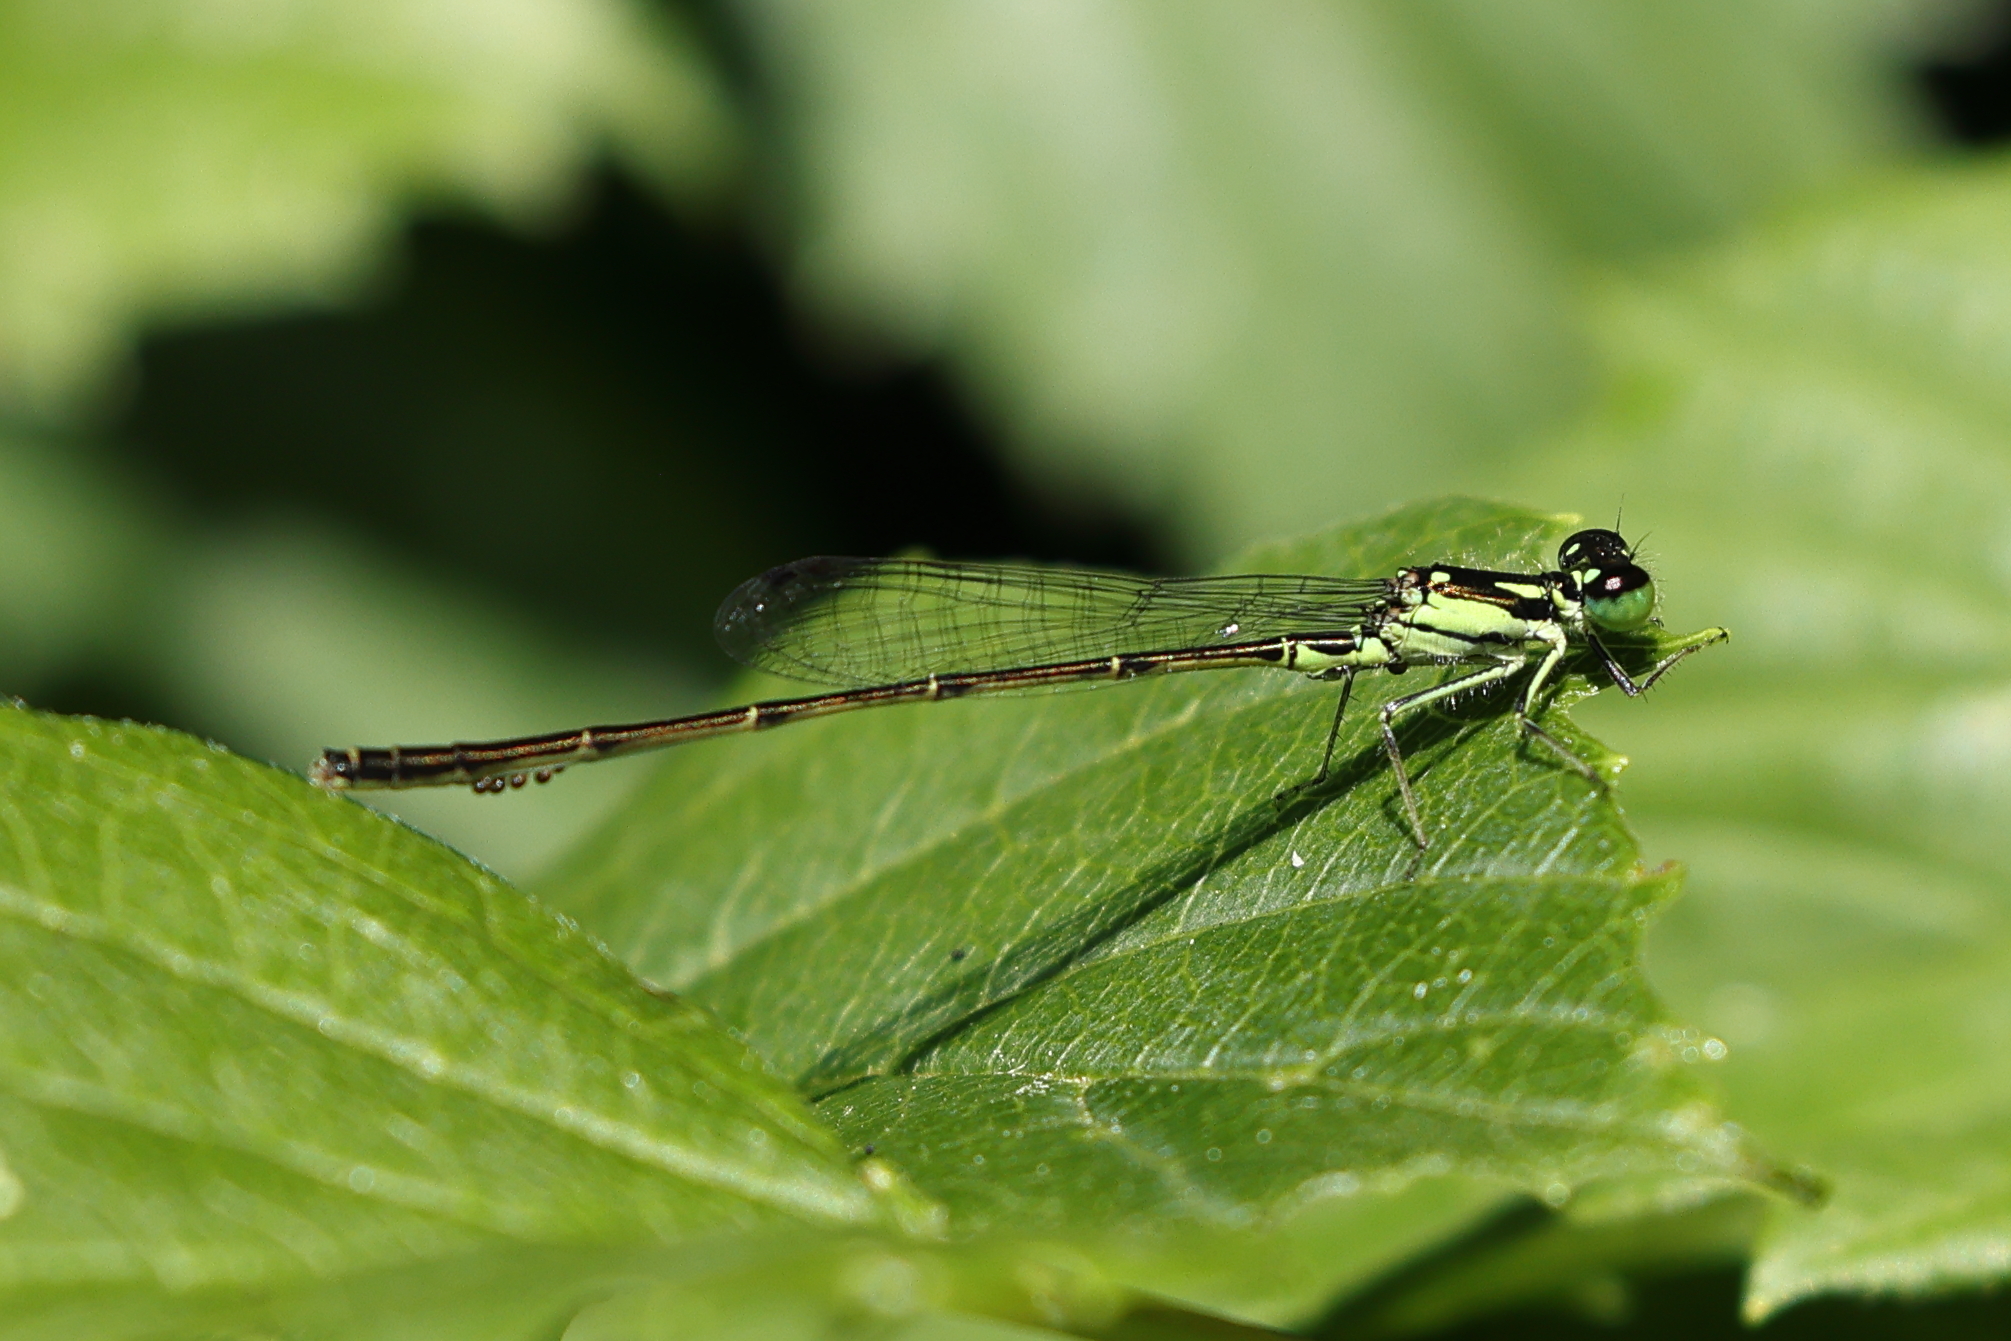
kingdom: Animalia
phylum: Arthropoda
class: Insecta
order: Odonata
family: Coenagrionidae
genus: Ischnura
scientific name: Ischnura posita
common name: Fragile forktail
